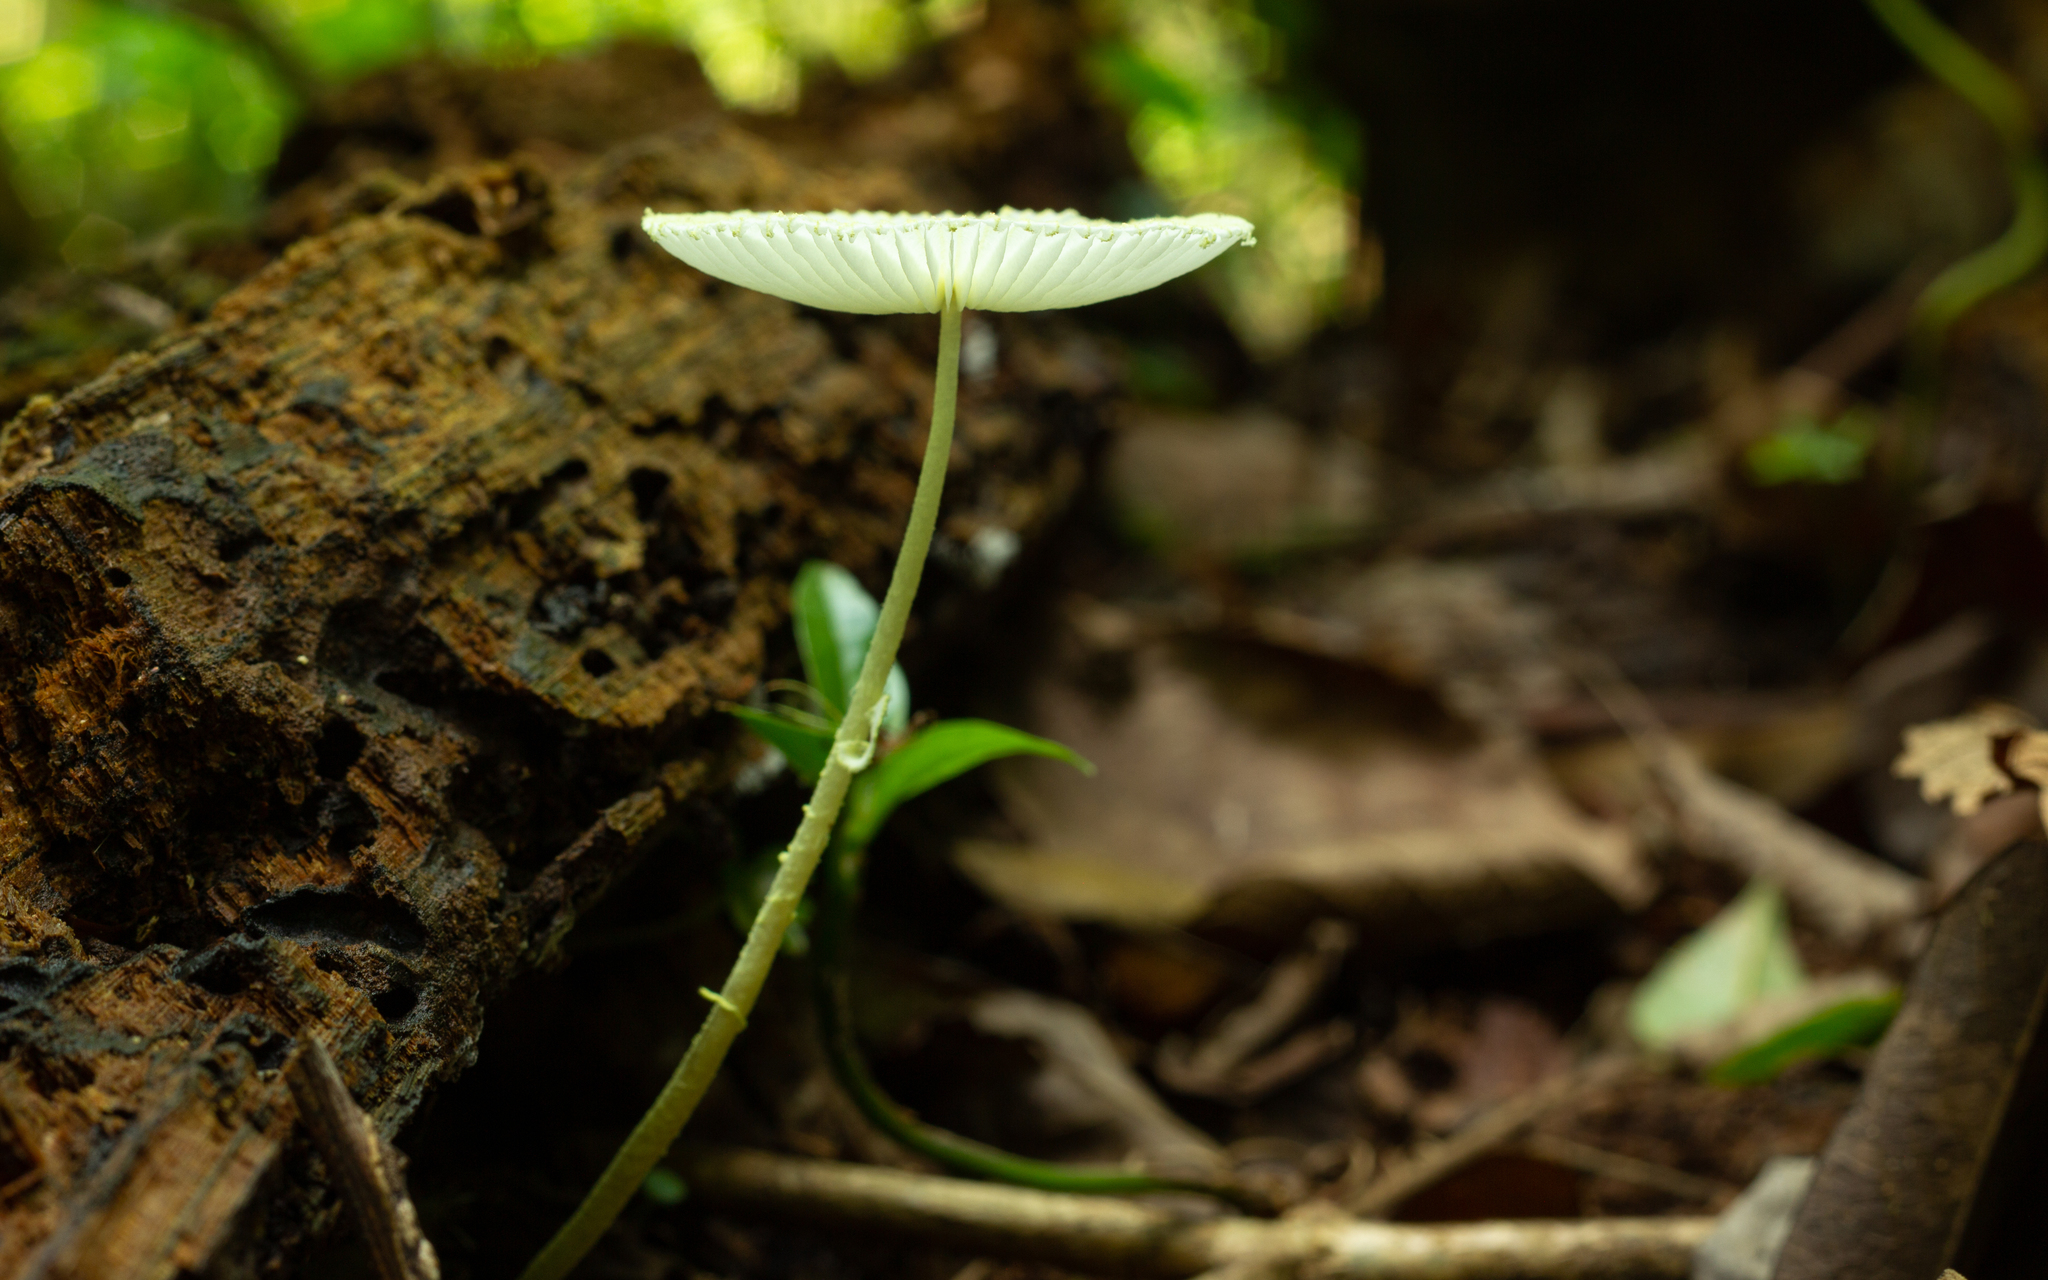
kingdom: Fungi
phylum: Basidiomycota
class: Agaricomycetes
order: Agaricales
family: Agaricaceae
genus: Leucocoprinus
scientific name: Leucocoprinus fragilissimus
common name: Fragile dapperling
